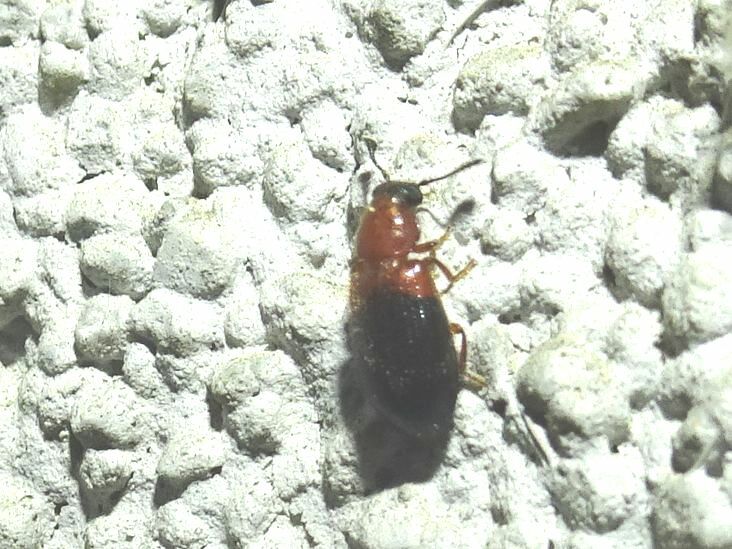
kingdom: Animalia
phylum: Arthropoda
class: Insecta
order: Coleoptera
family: Cleridae
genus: Necrobia
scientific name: Necrobia ruficollis
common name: Redshouldered ham beetle
